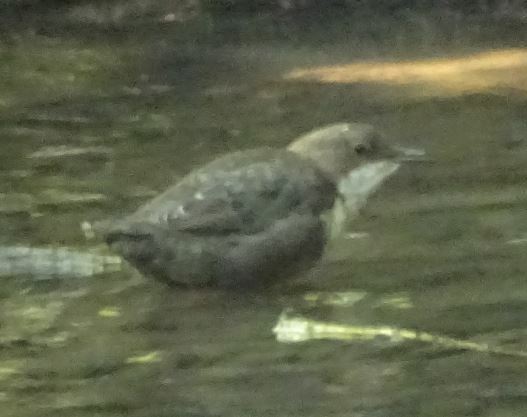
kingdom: Animalia
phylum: Chordata
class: Aves
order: Passeriformes
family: Cinclidae
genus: Cinclus
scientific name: Cinclus cinclus
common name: White-throated dipper
